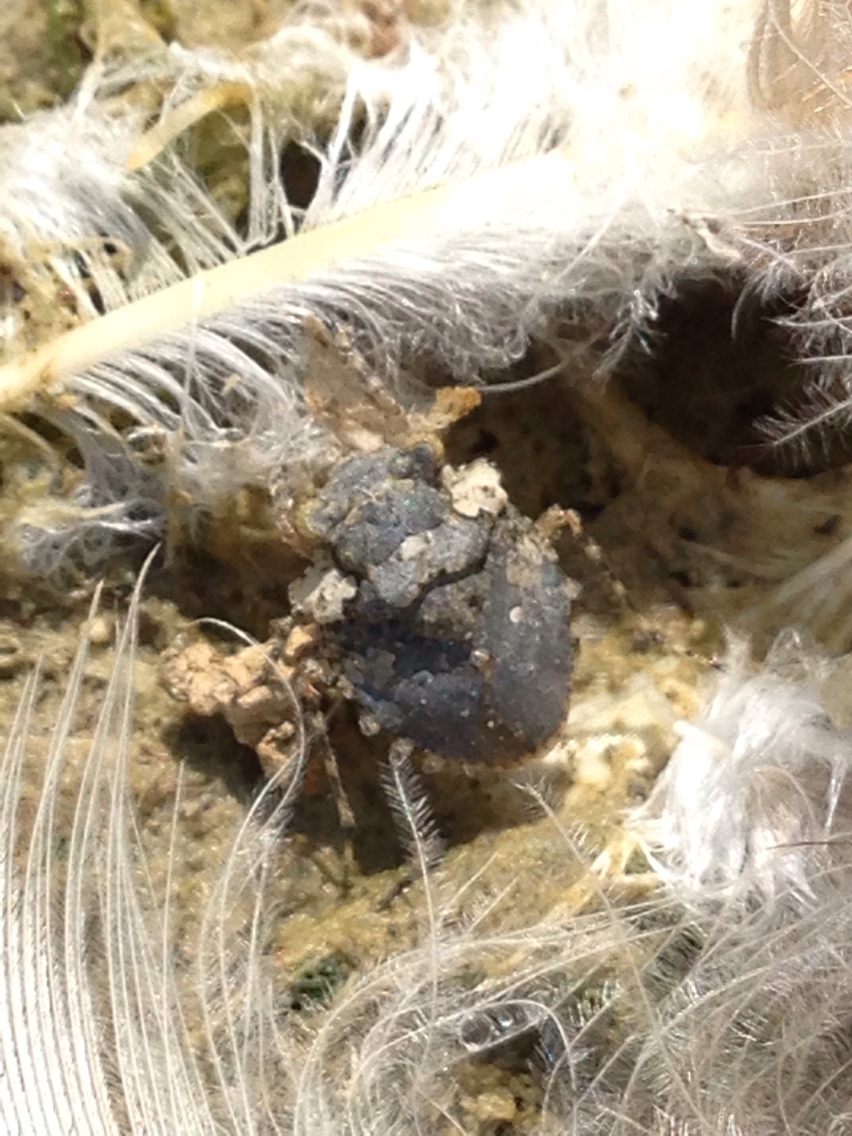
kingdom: Animalia
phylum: Arthropoda
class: Insecta
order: Hemiptera
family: Gelastocoridae
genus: Gelastocoris
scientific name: Gelastocoris oculatus
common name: Toad bug
